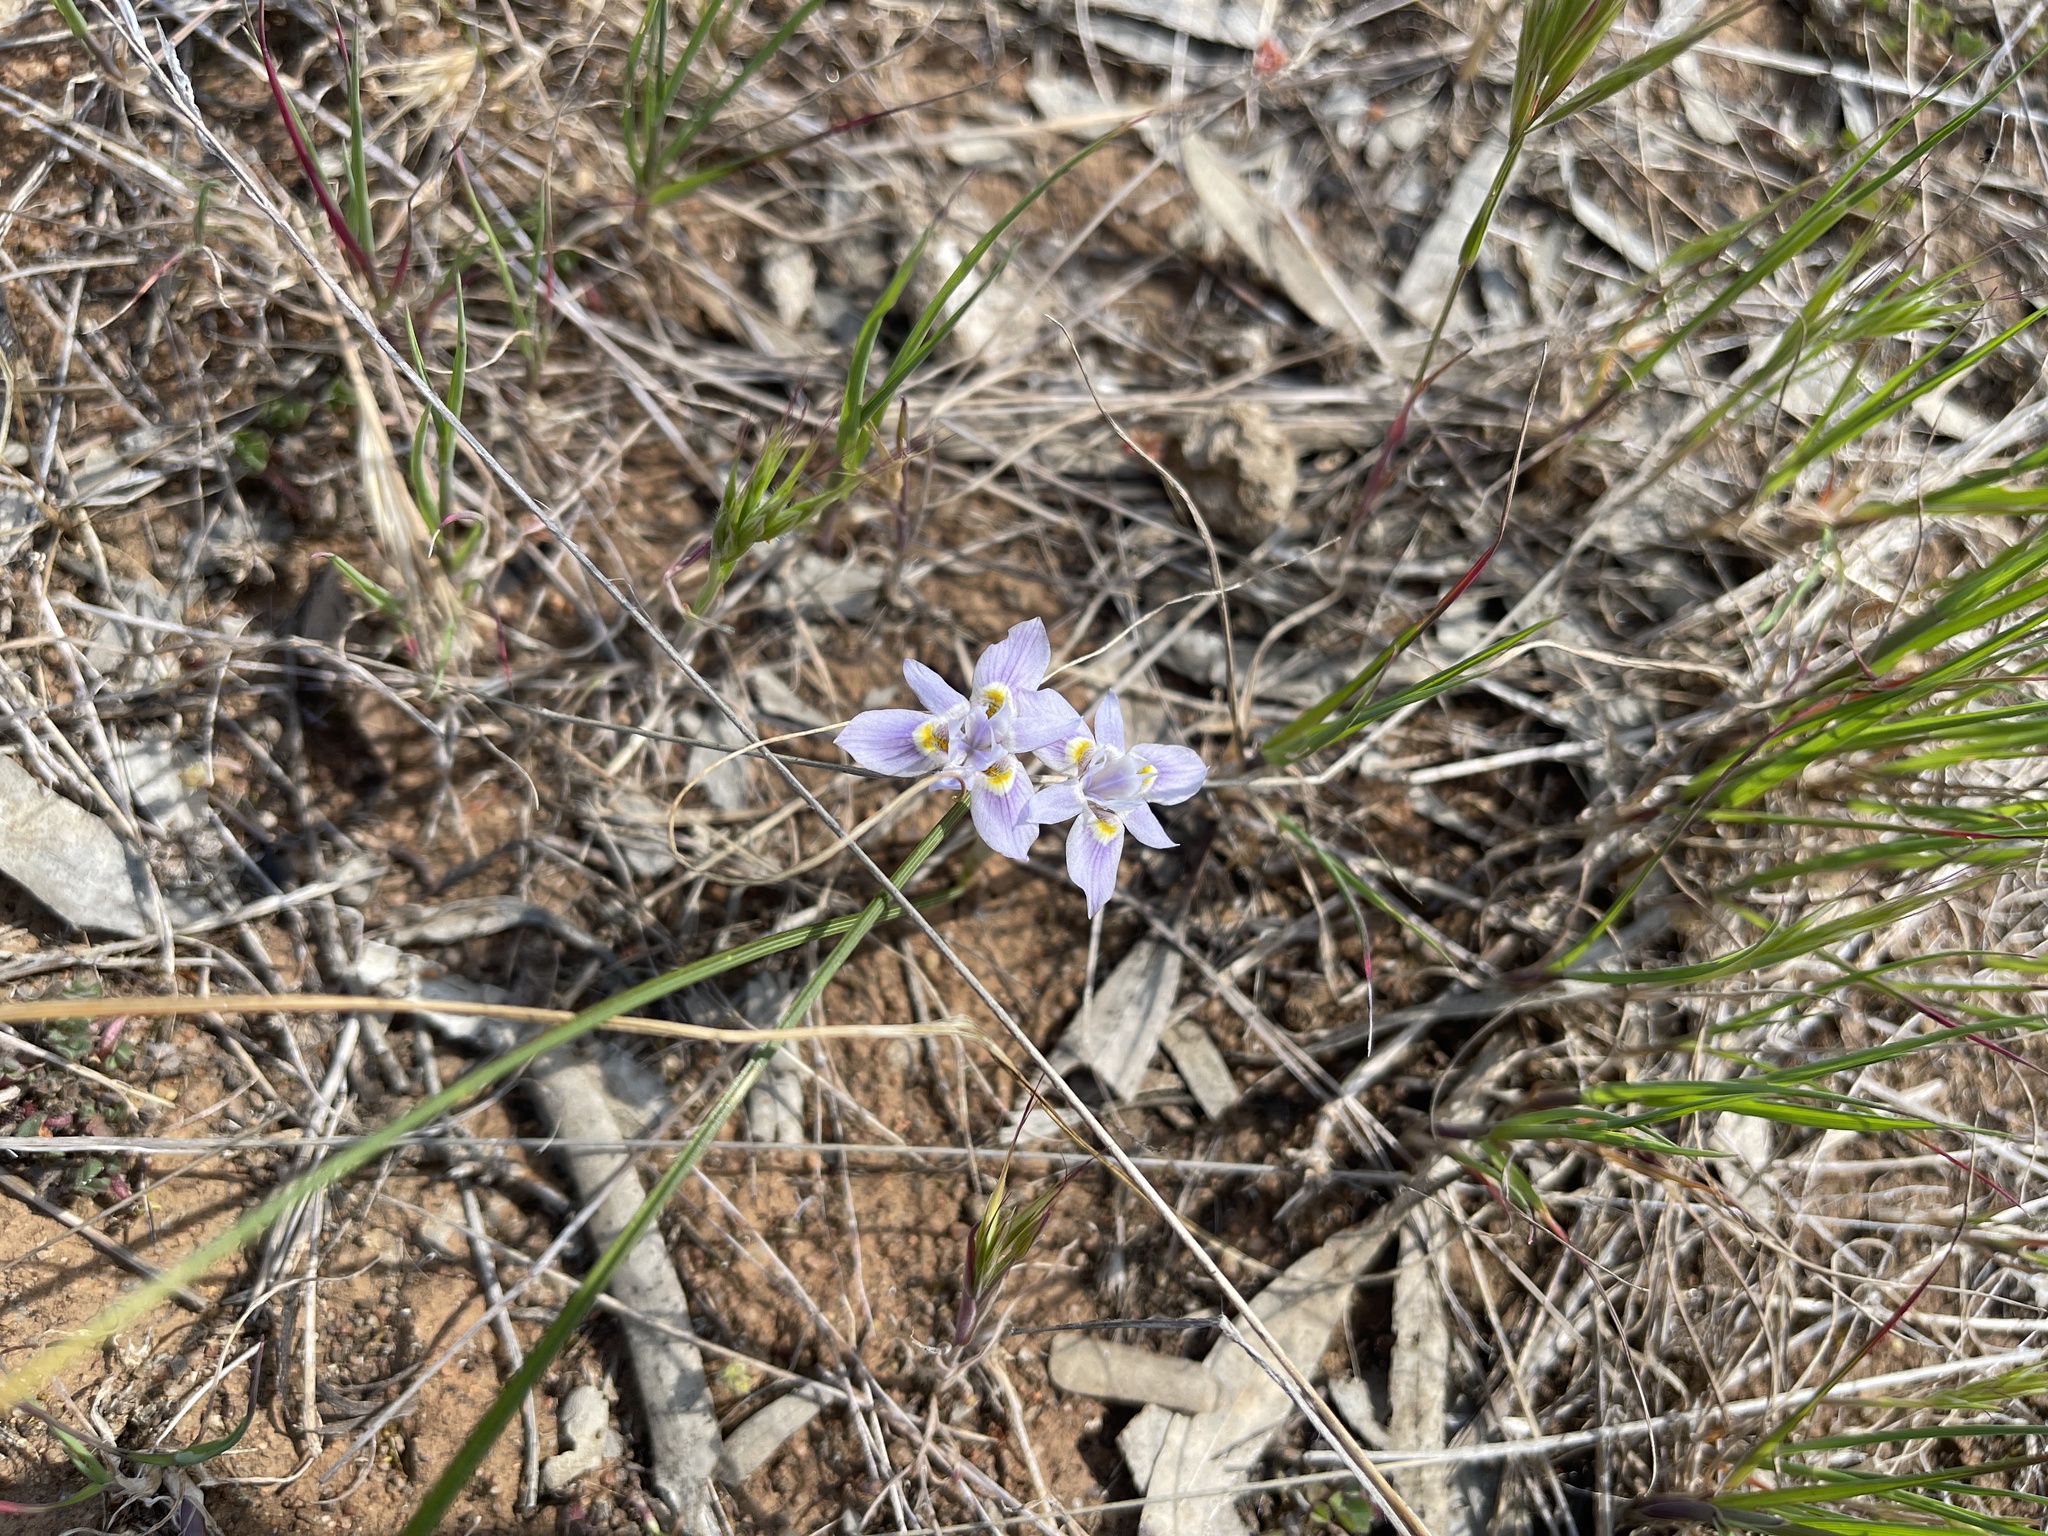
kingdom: Plantae
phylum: Tracheophyta
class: Liliopsida
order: Asparagales
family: Iridaceae
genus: Moraea
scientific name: Moraea setifolia
